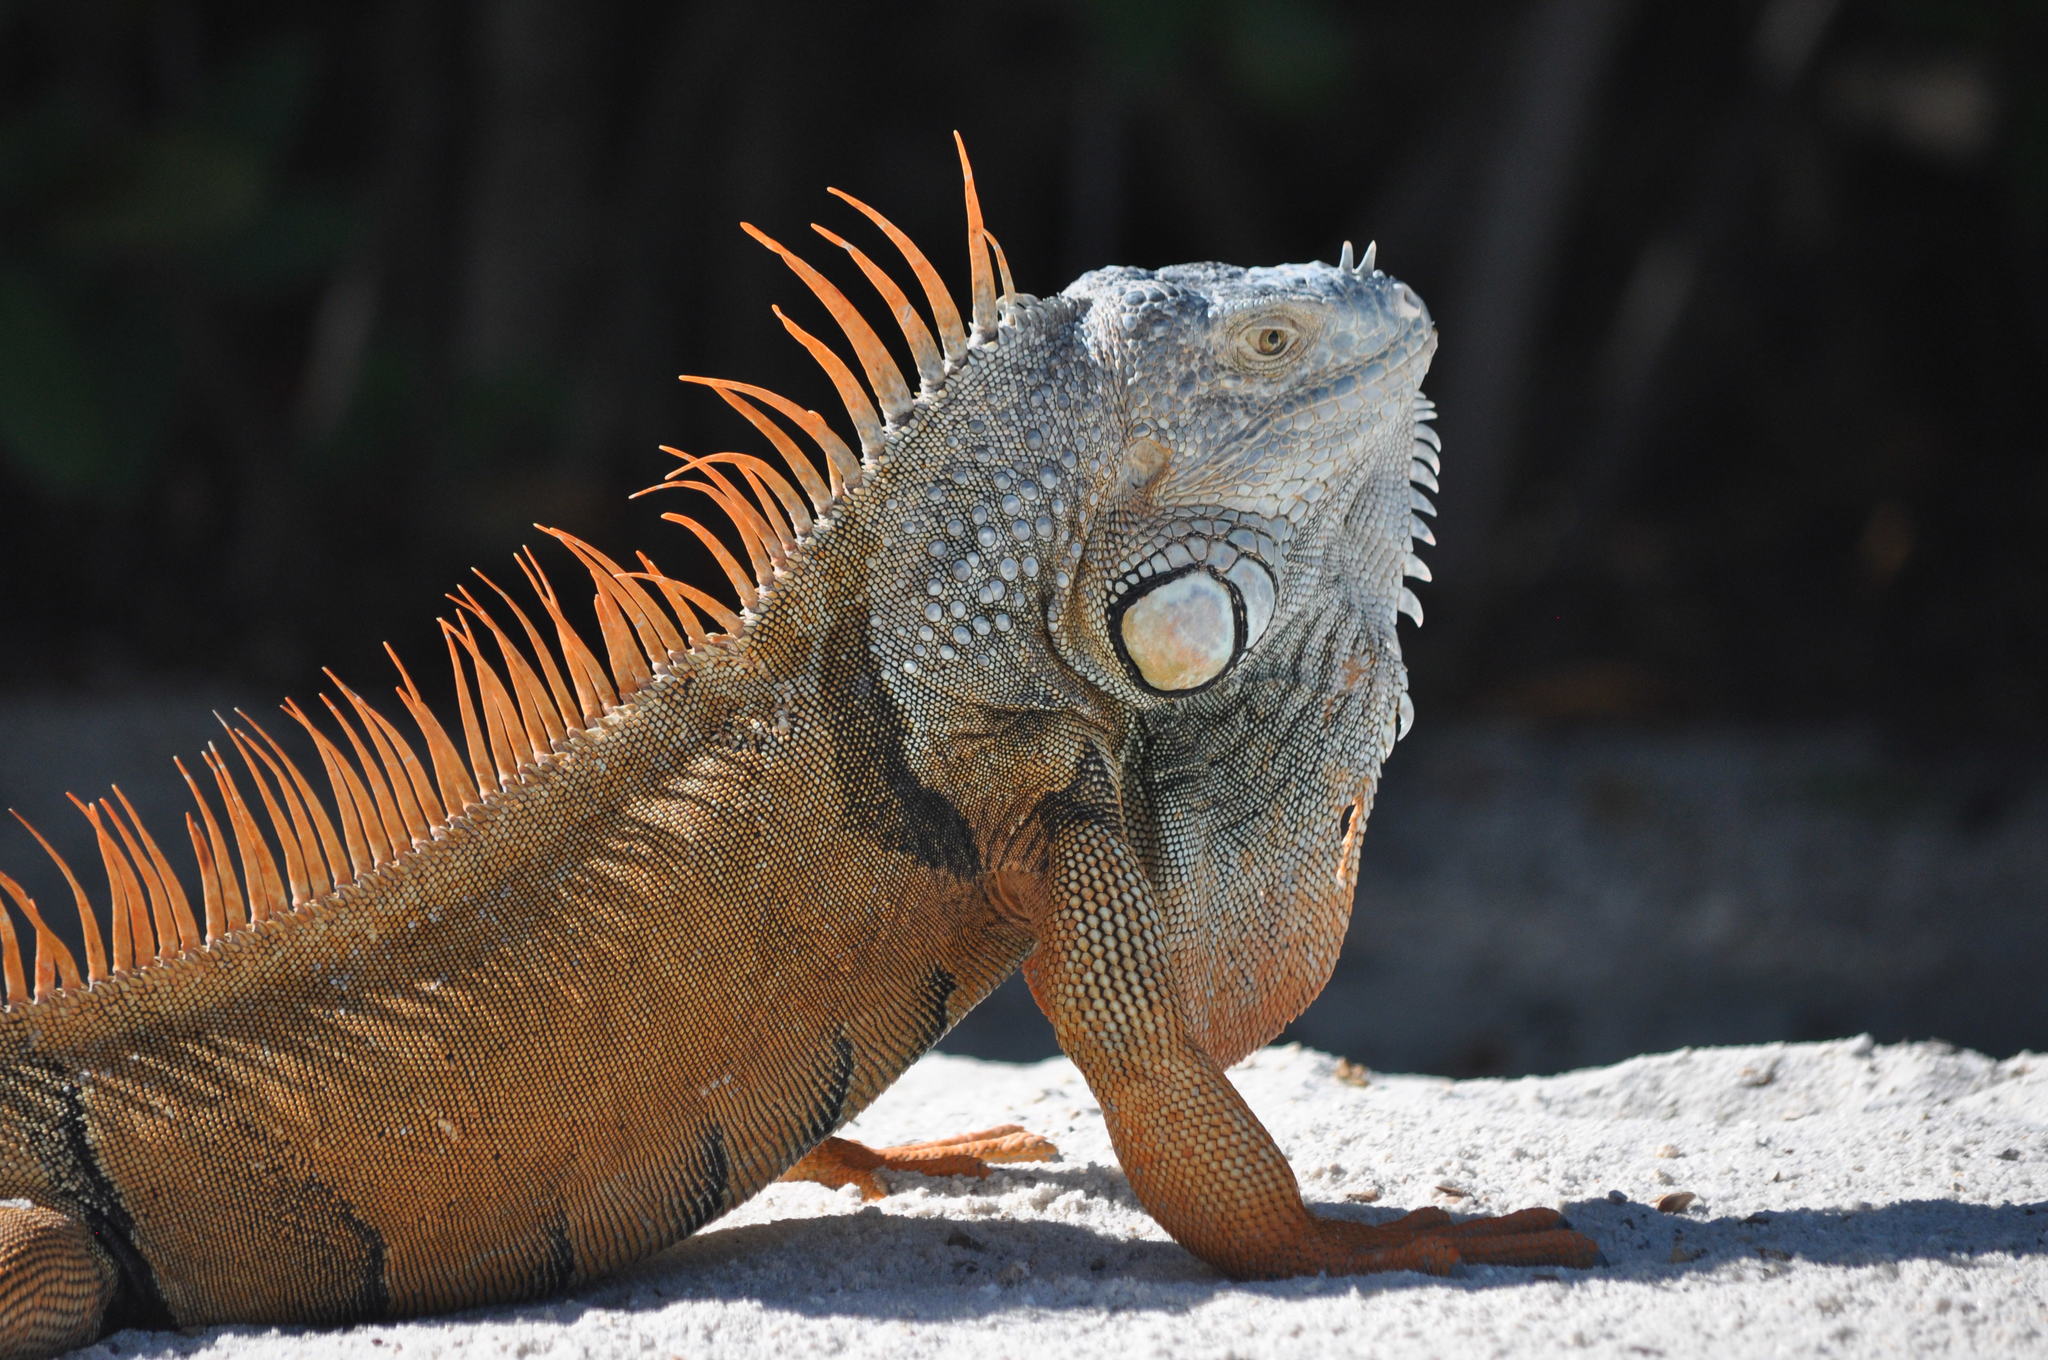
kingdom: Animalia
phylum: Chordata
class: Squamata
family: Iguanidae
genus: Iguana
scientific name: Iguana iguana
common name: Green iguana
